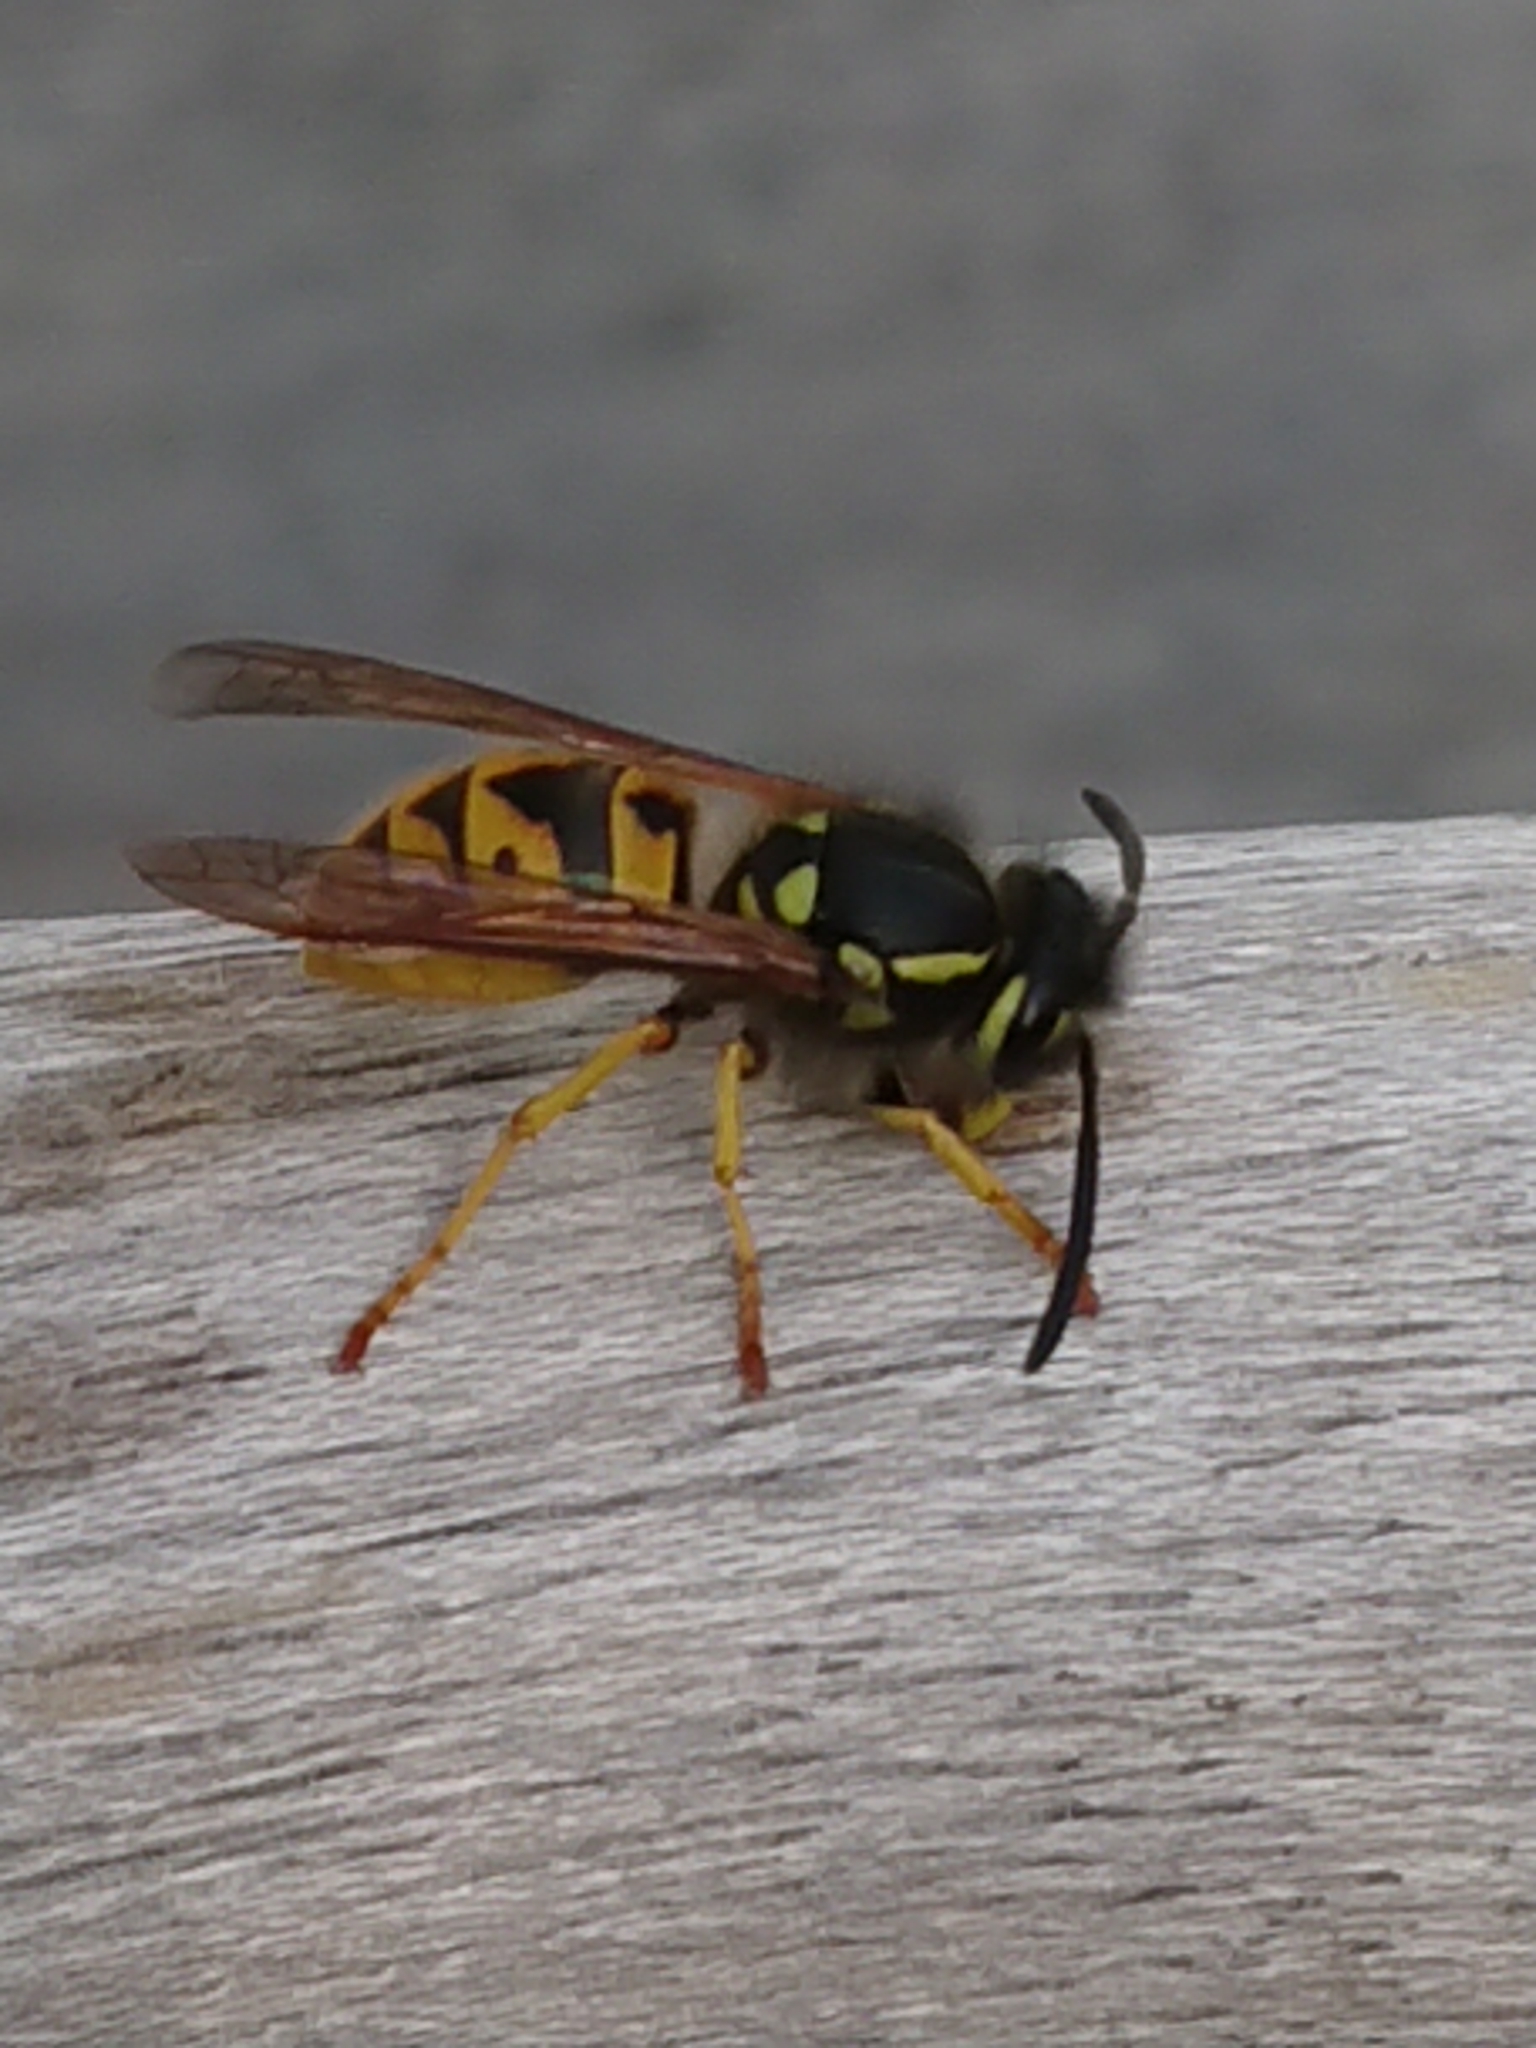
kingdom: Animalia
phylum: Arthropoda
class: Insecta
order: Hymenoptera
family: Vespidae
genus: Vespula
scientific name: Vespula germanica
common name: German wasp
